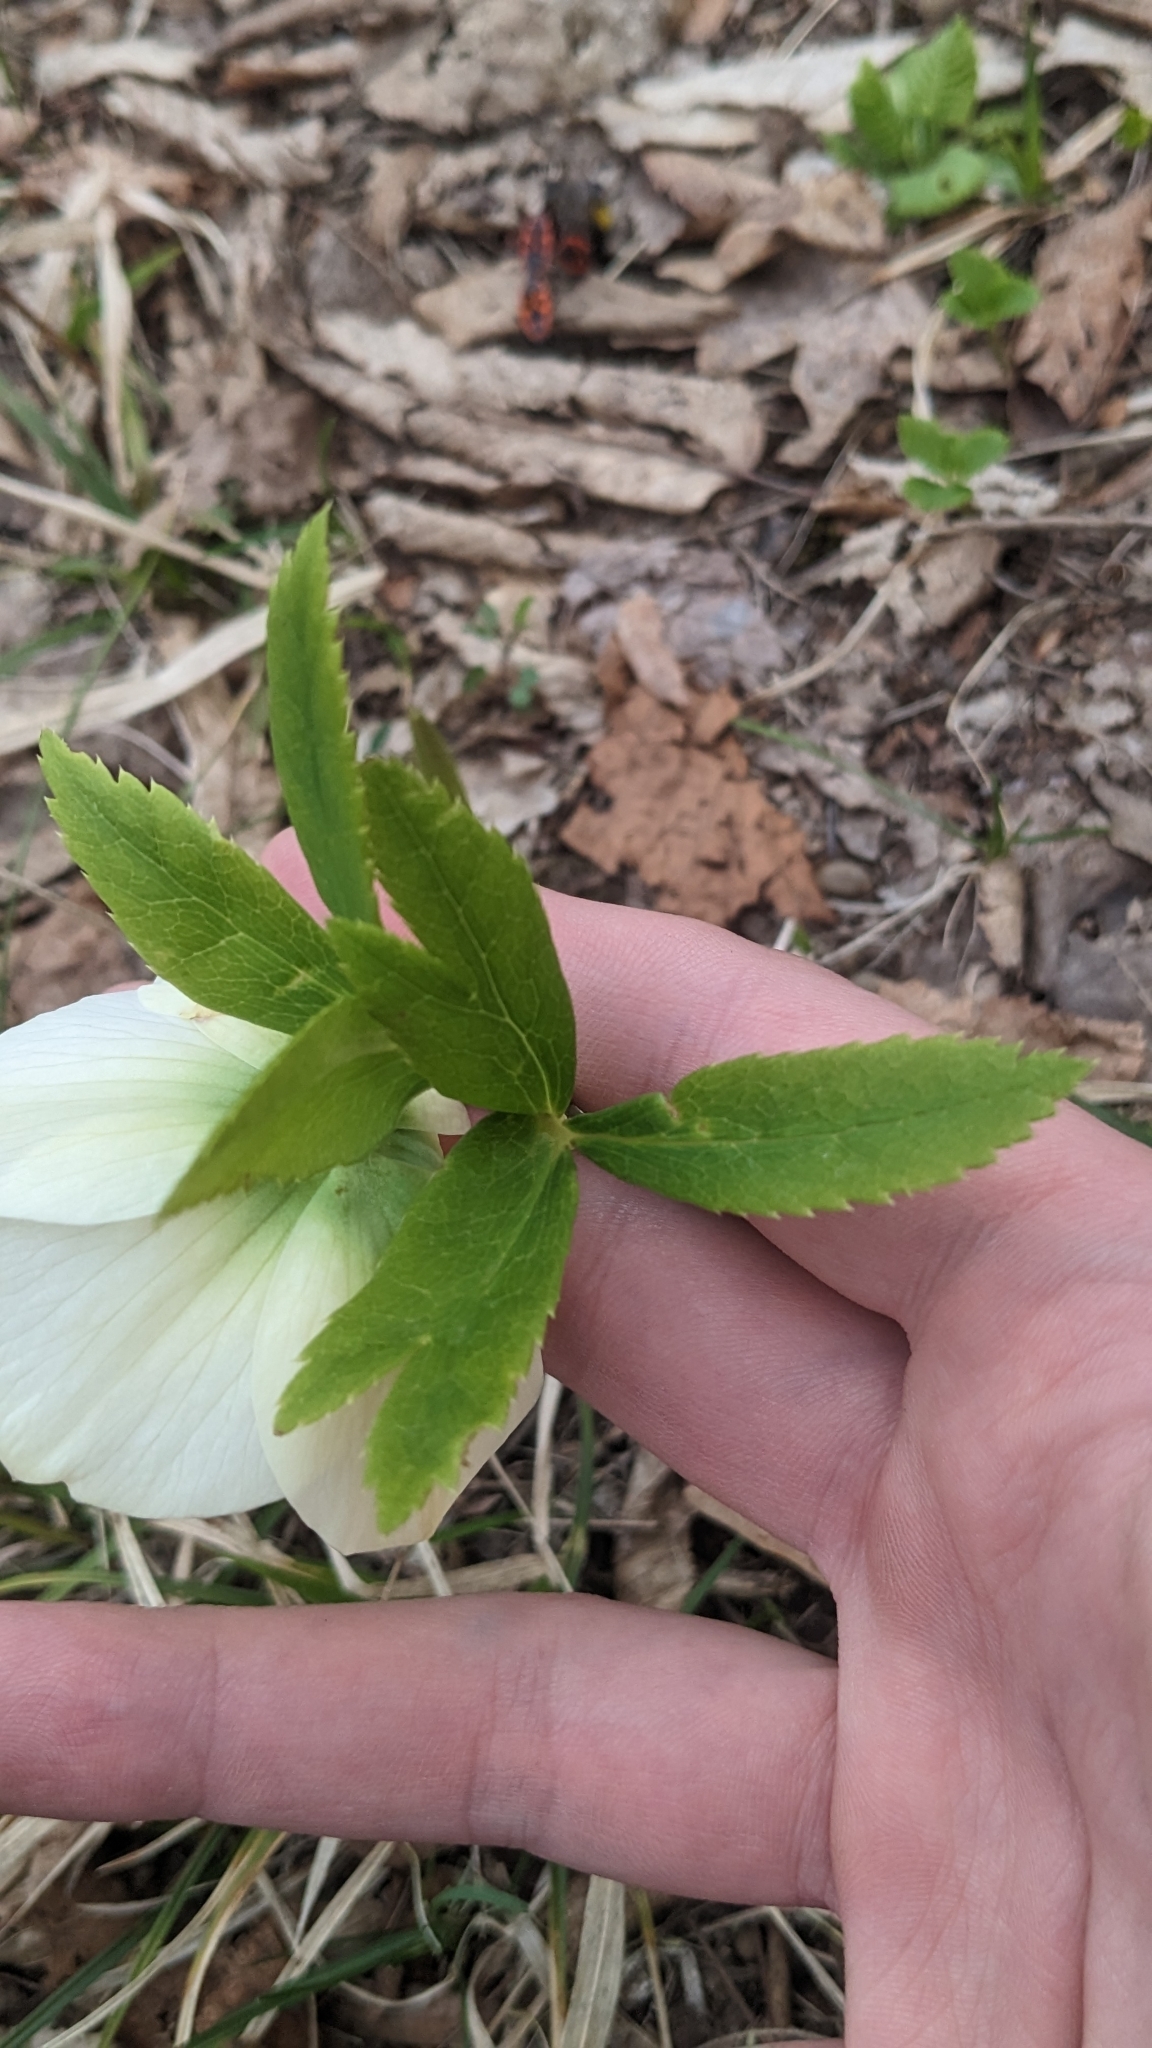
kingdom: Plantae
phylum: Tracheophyta
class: Magnoliopsida
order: Ranunculales
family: Ranunculaceae
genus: Helleborus
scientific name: Helleborus orientalis
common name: Lenten-rose
